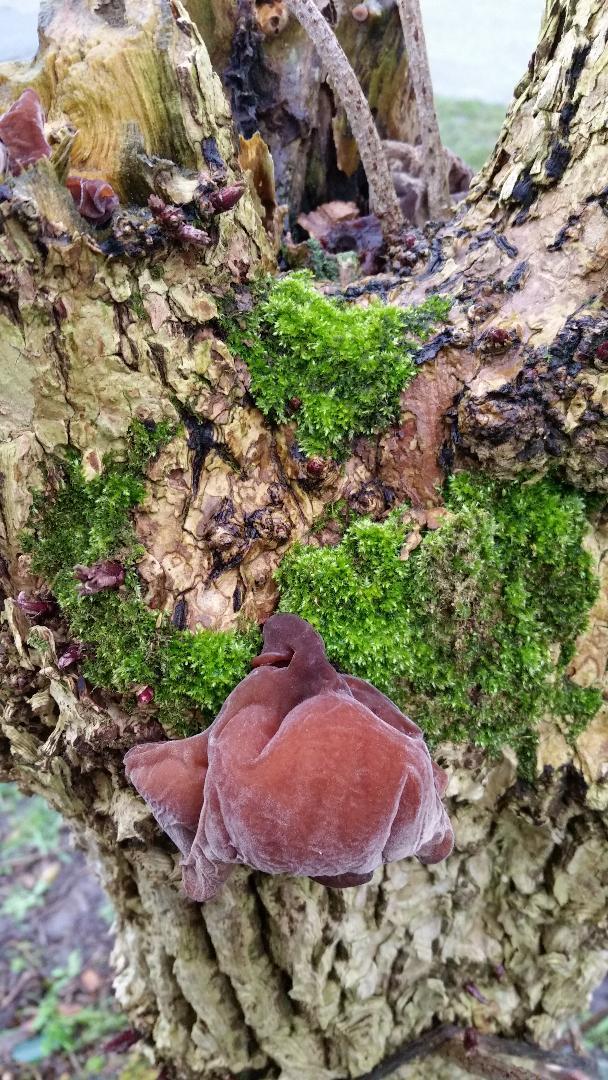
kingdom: Fungi
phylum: Basidiomycota
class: Agaricomycetes
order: Auriculariales
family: Auriculariaceae
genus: Auricularia
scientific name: Auricularia auricula-judae
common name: Jelly ear
